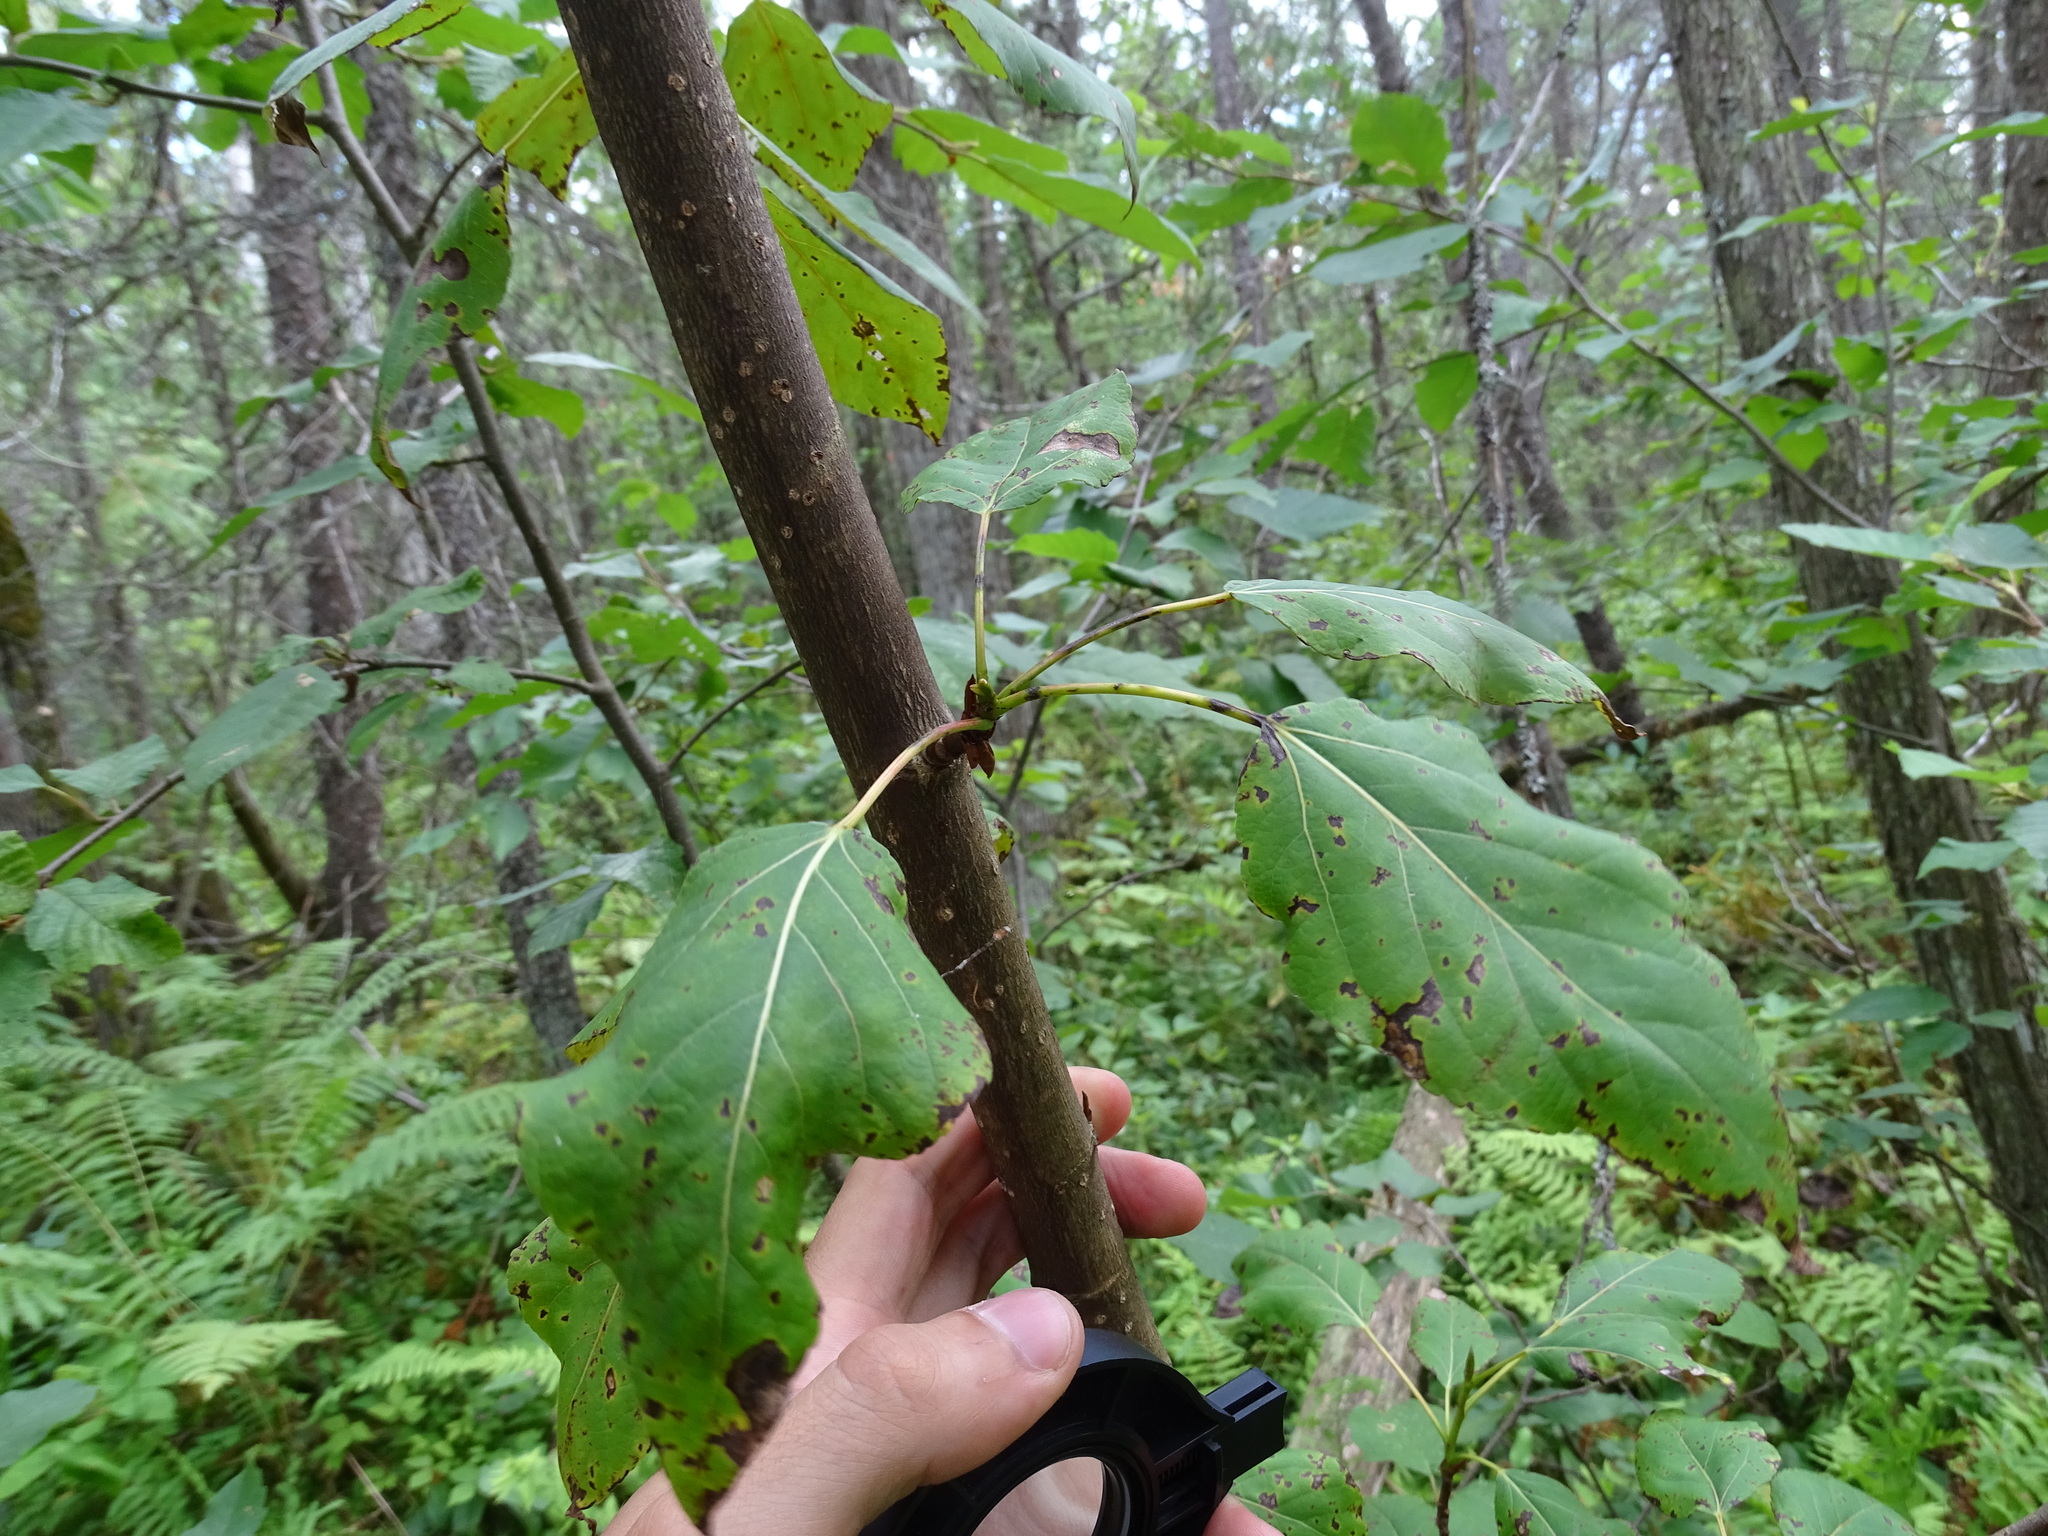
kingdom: Plantae
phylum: Tracheophyta
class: Magnoliopsida
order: Malpighiales
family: Salicaceae
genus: Populus
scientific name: Populus balsamifera
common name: Balsam poplar
